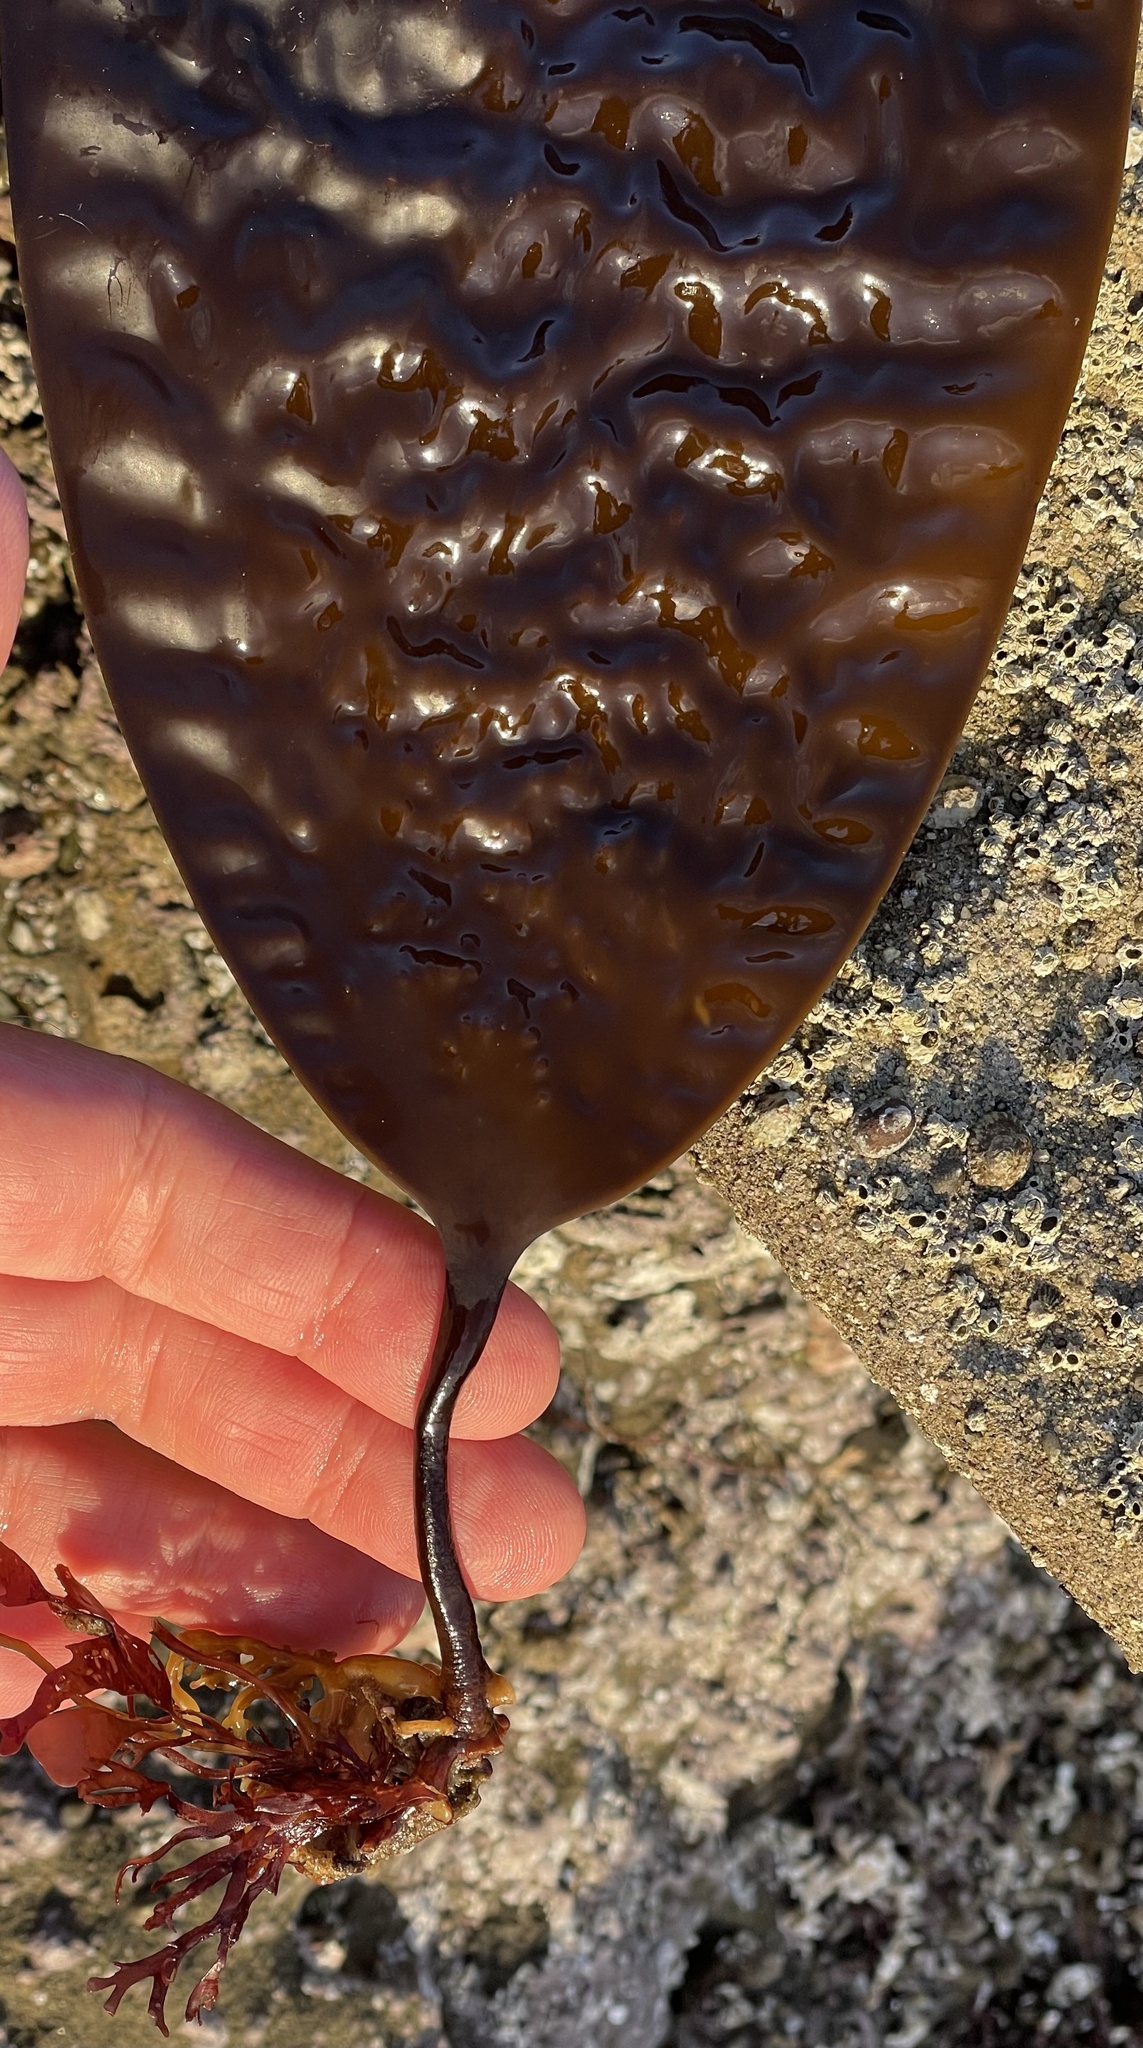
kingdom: Chromista
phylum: Ochrophyta
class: Phaeophyceae
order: Laminariales
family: Laminariaceae
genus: Laminaria
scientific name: Laminaria farlowii
